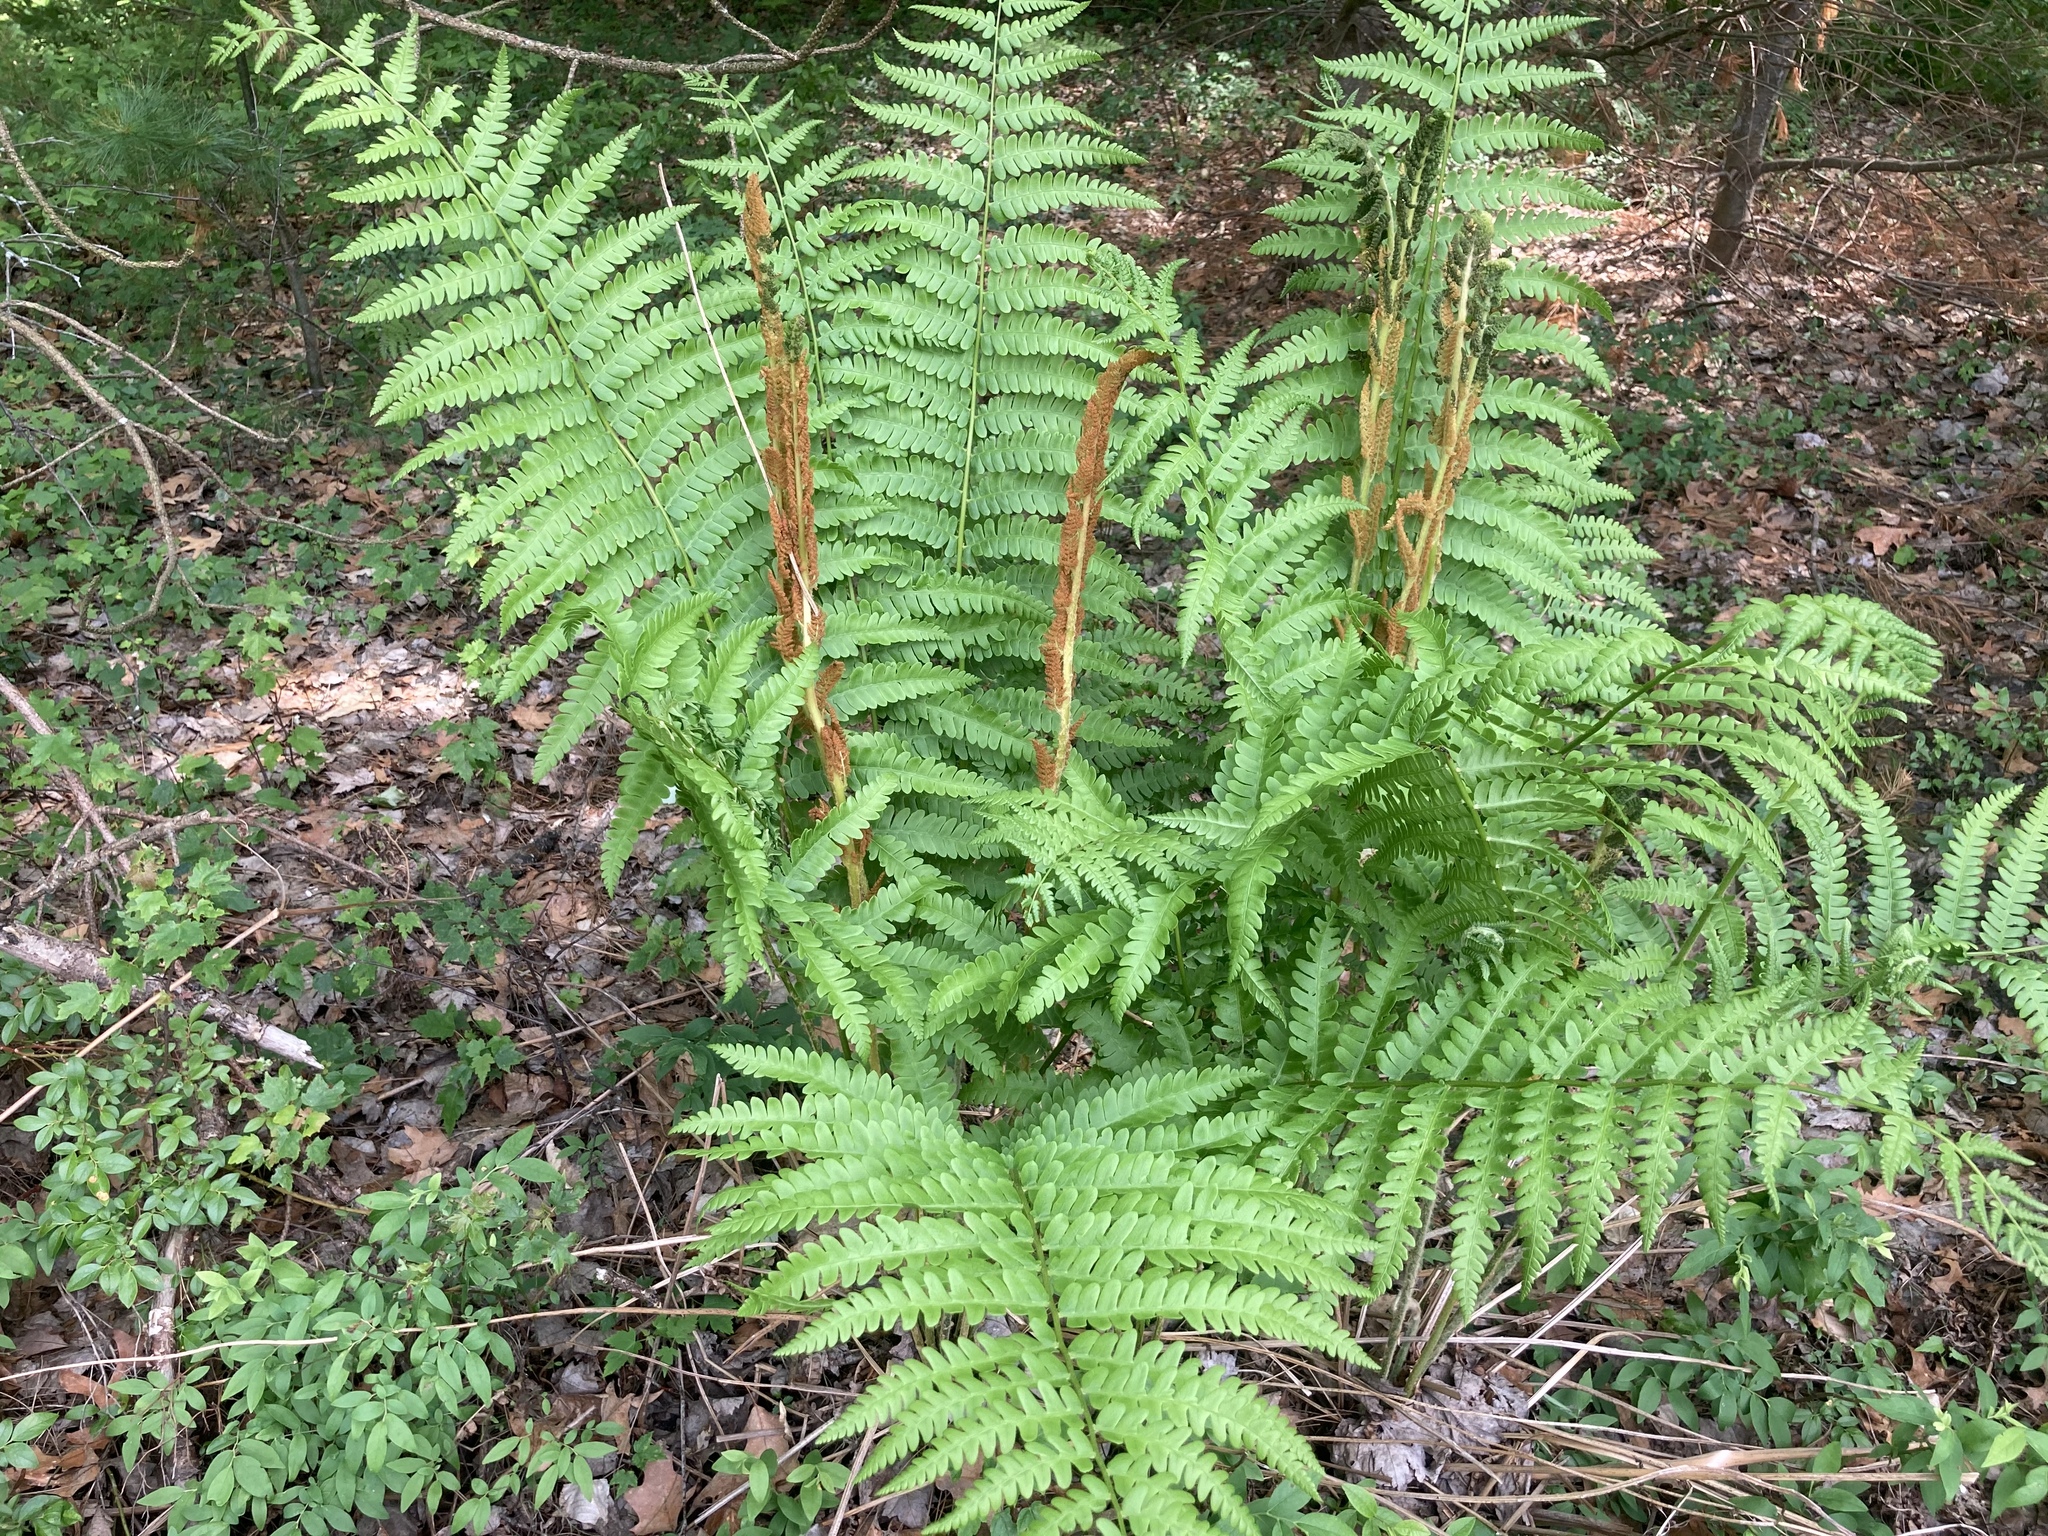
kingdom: Plantae
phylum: Tracheophyta
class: Polypodiopsida
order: Osmundales
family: Osmundaceae
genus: Osmundastrum
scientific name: Osmundastrum cinnamomeum
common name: Cinnamon fern
